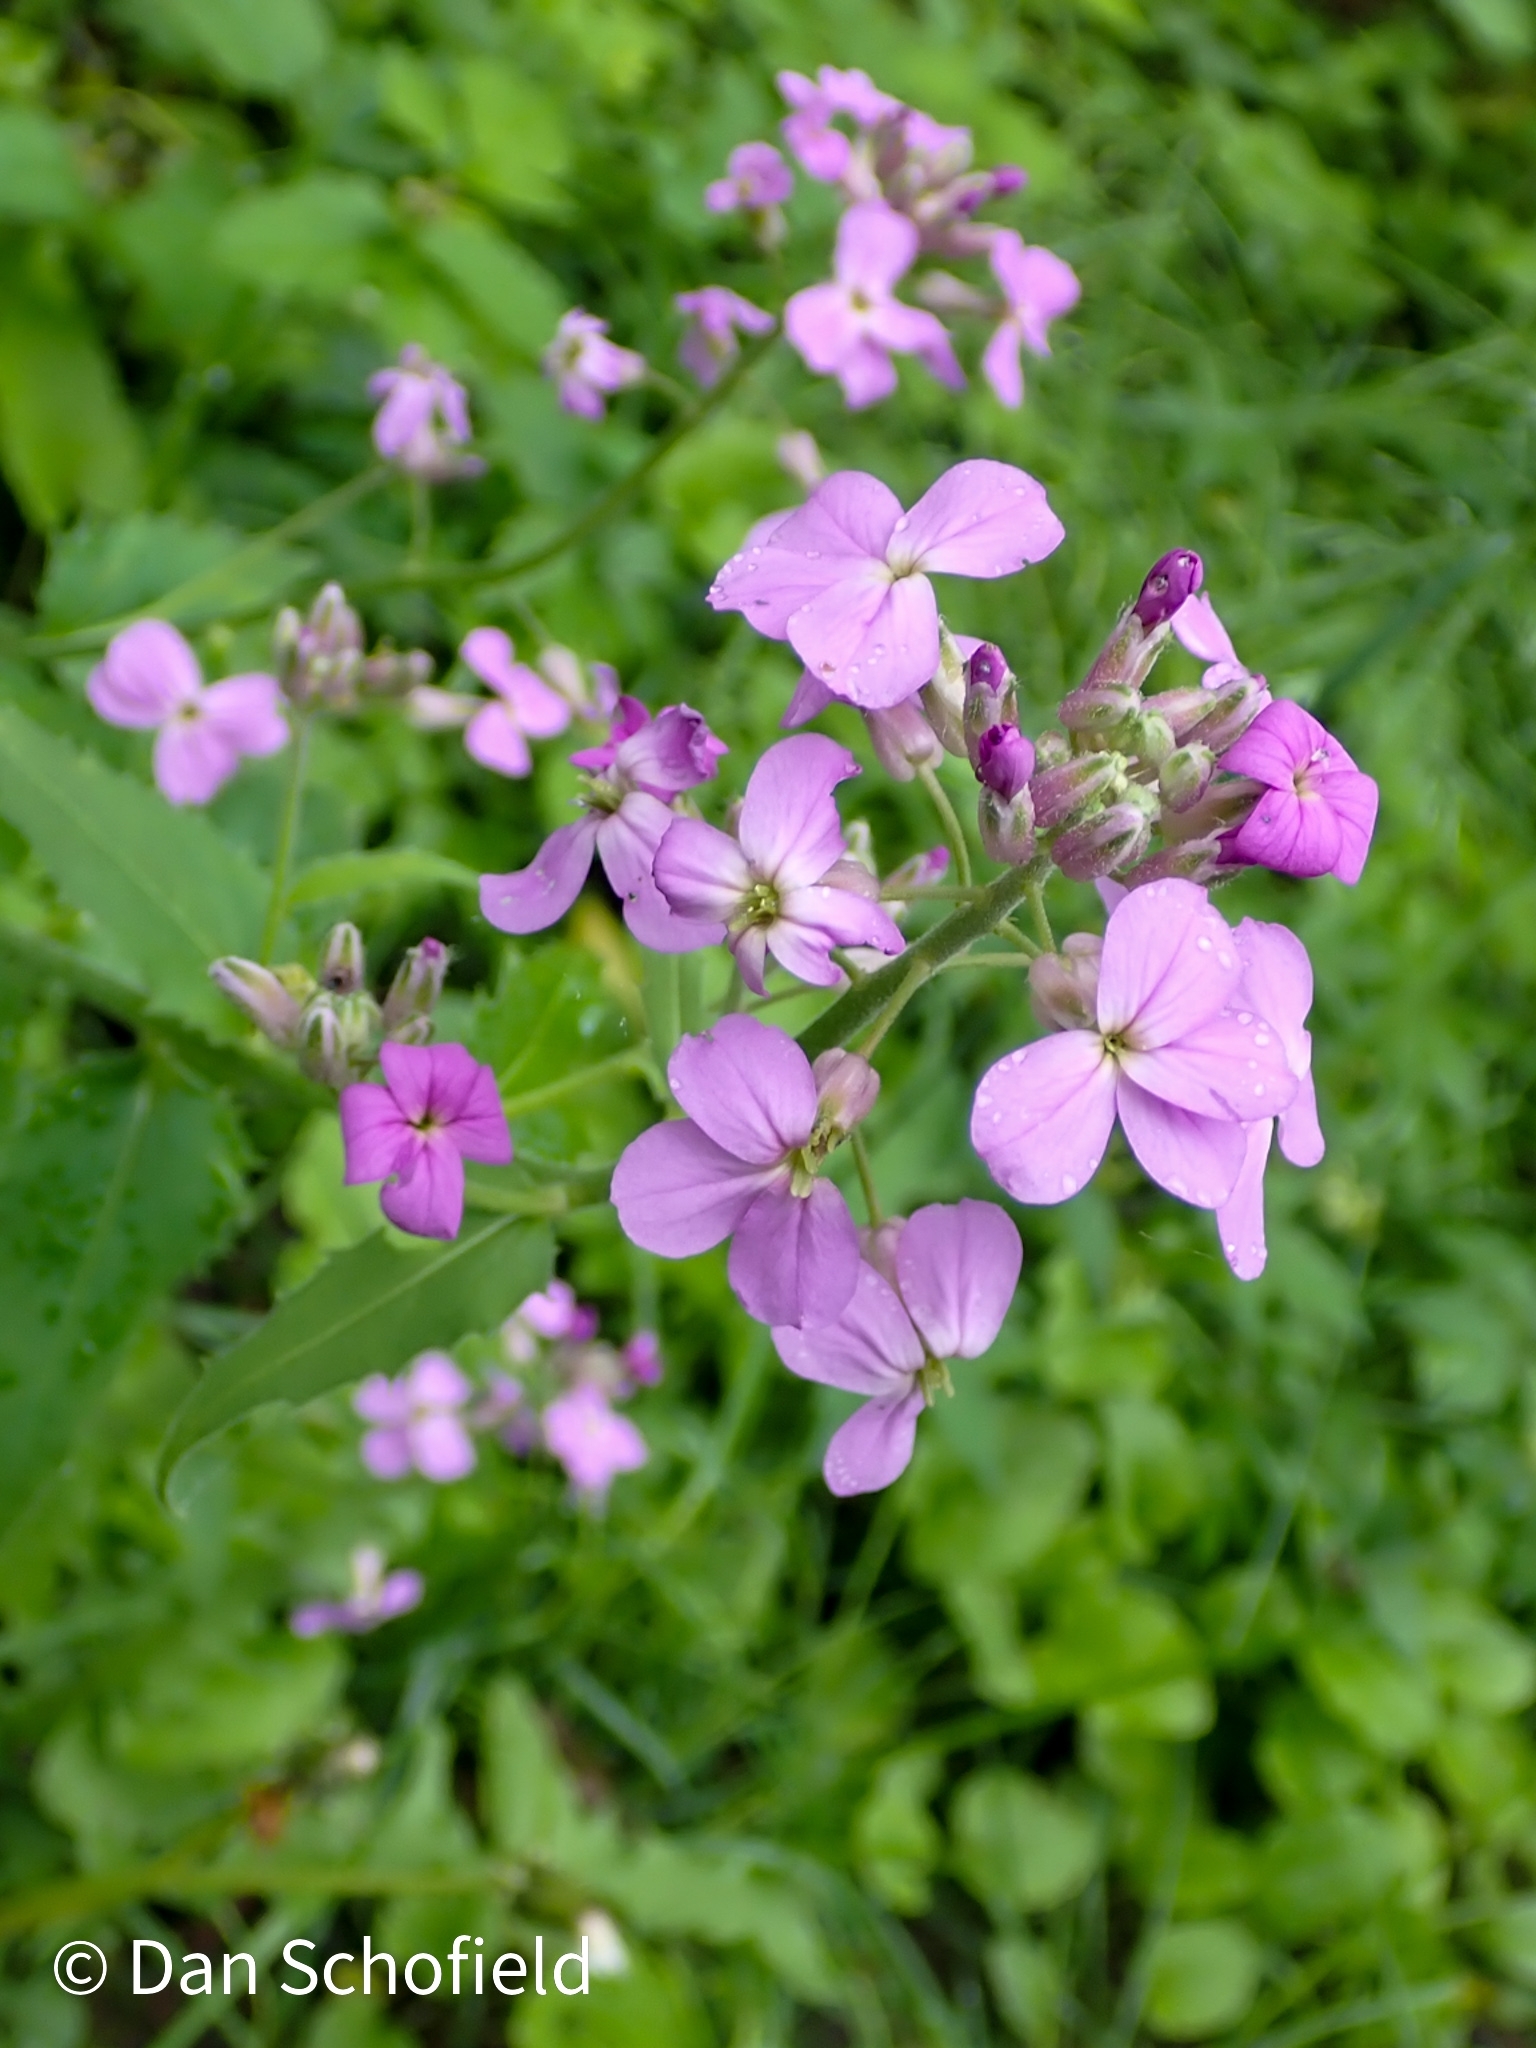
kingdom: Plantae
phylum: Tracheophyta
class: Magnoliopsida
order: Brassicales
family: Brassicaceae
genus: Hesperis
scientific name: Hesperis matronalis
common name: Dame's-violet
